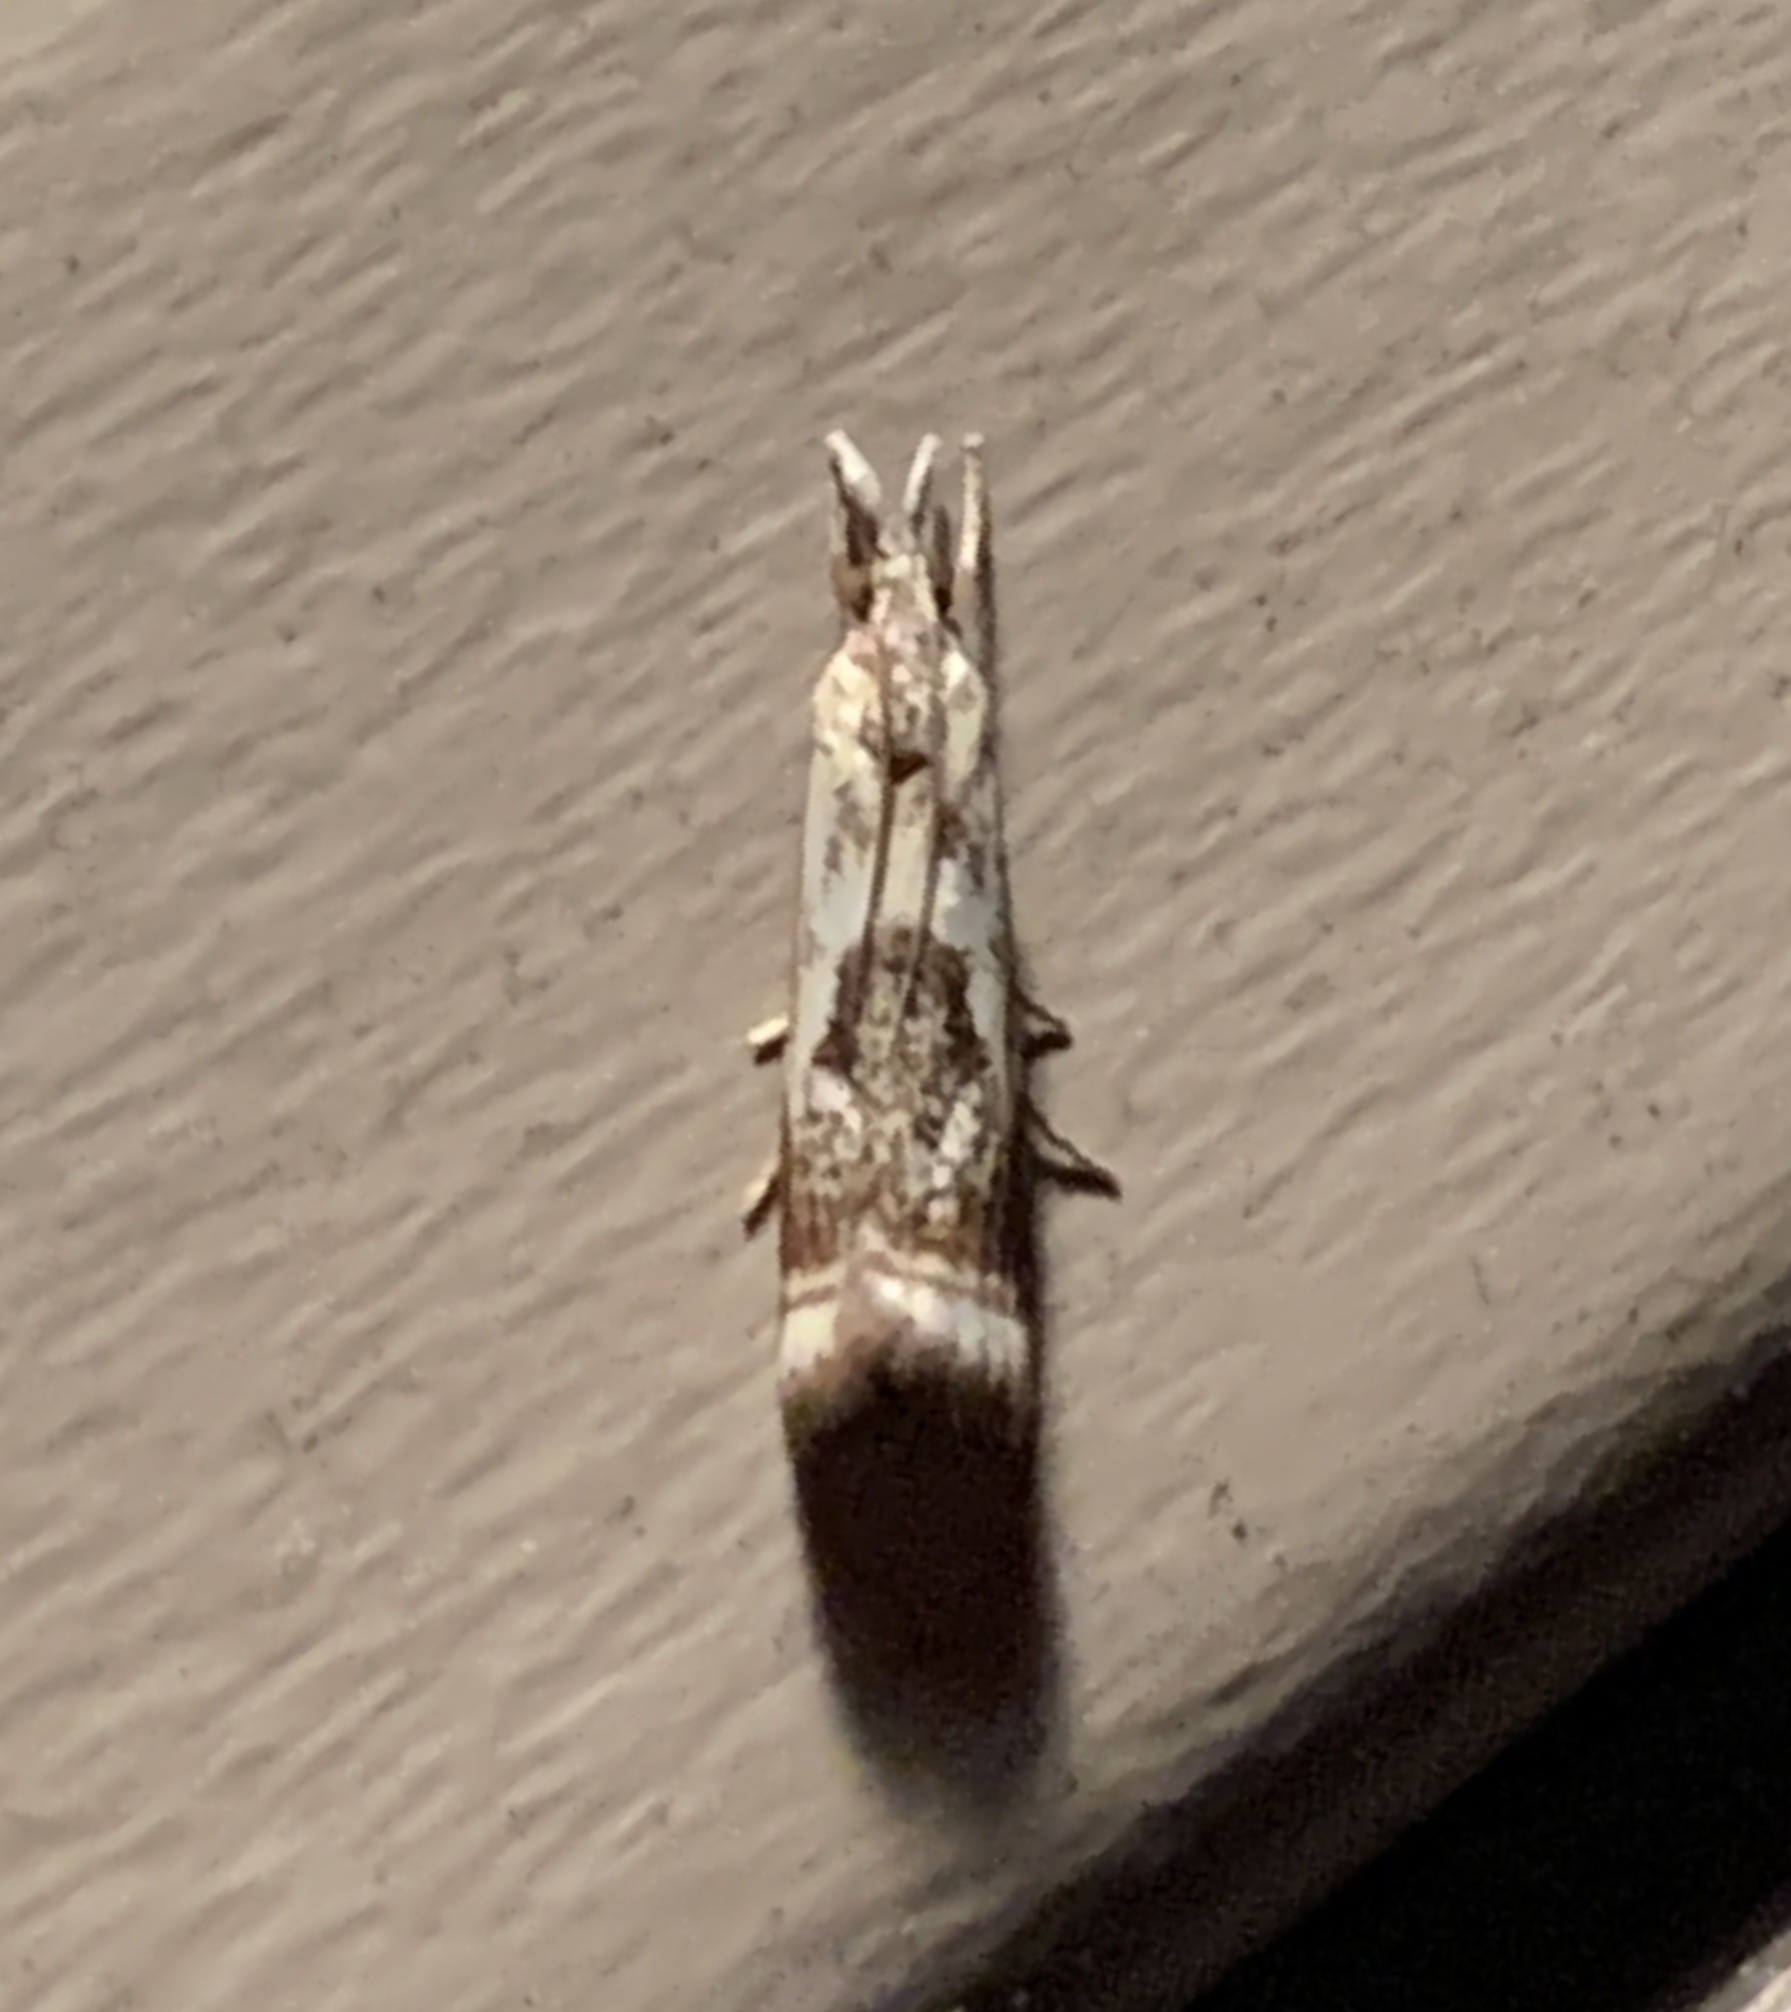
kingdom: Animalia
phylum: Arthropoda
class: Insecta
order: Lepidoptera
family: Crambidae
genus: Microcrambus
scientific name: Microcrambus elegans
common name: Elegant grass-veneer
